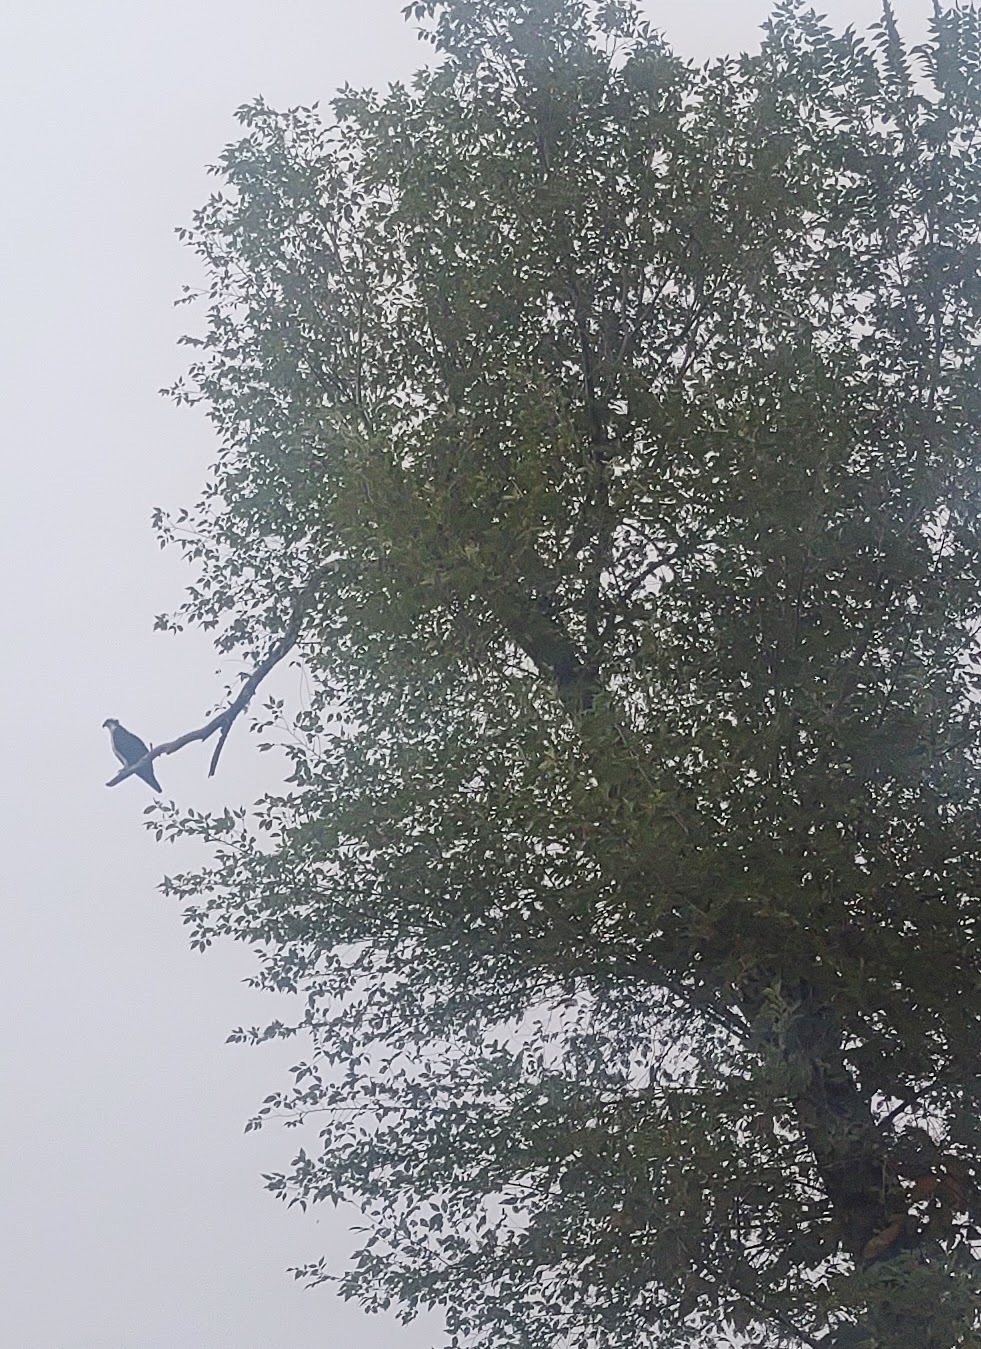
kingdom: Animalia
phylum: Chordata
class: Aves
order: Accipitriformes
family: Pandionidae
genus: Pandion
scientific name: Pandion haliaetus
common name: Osprey
